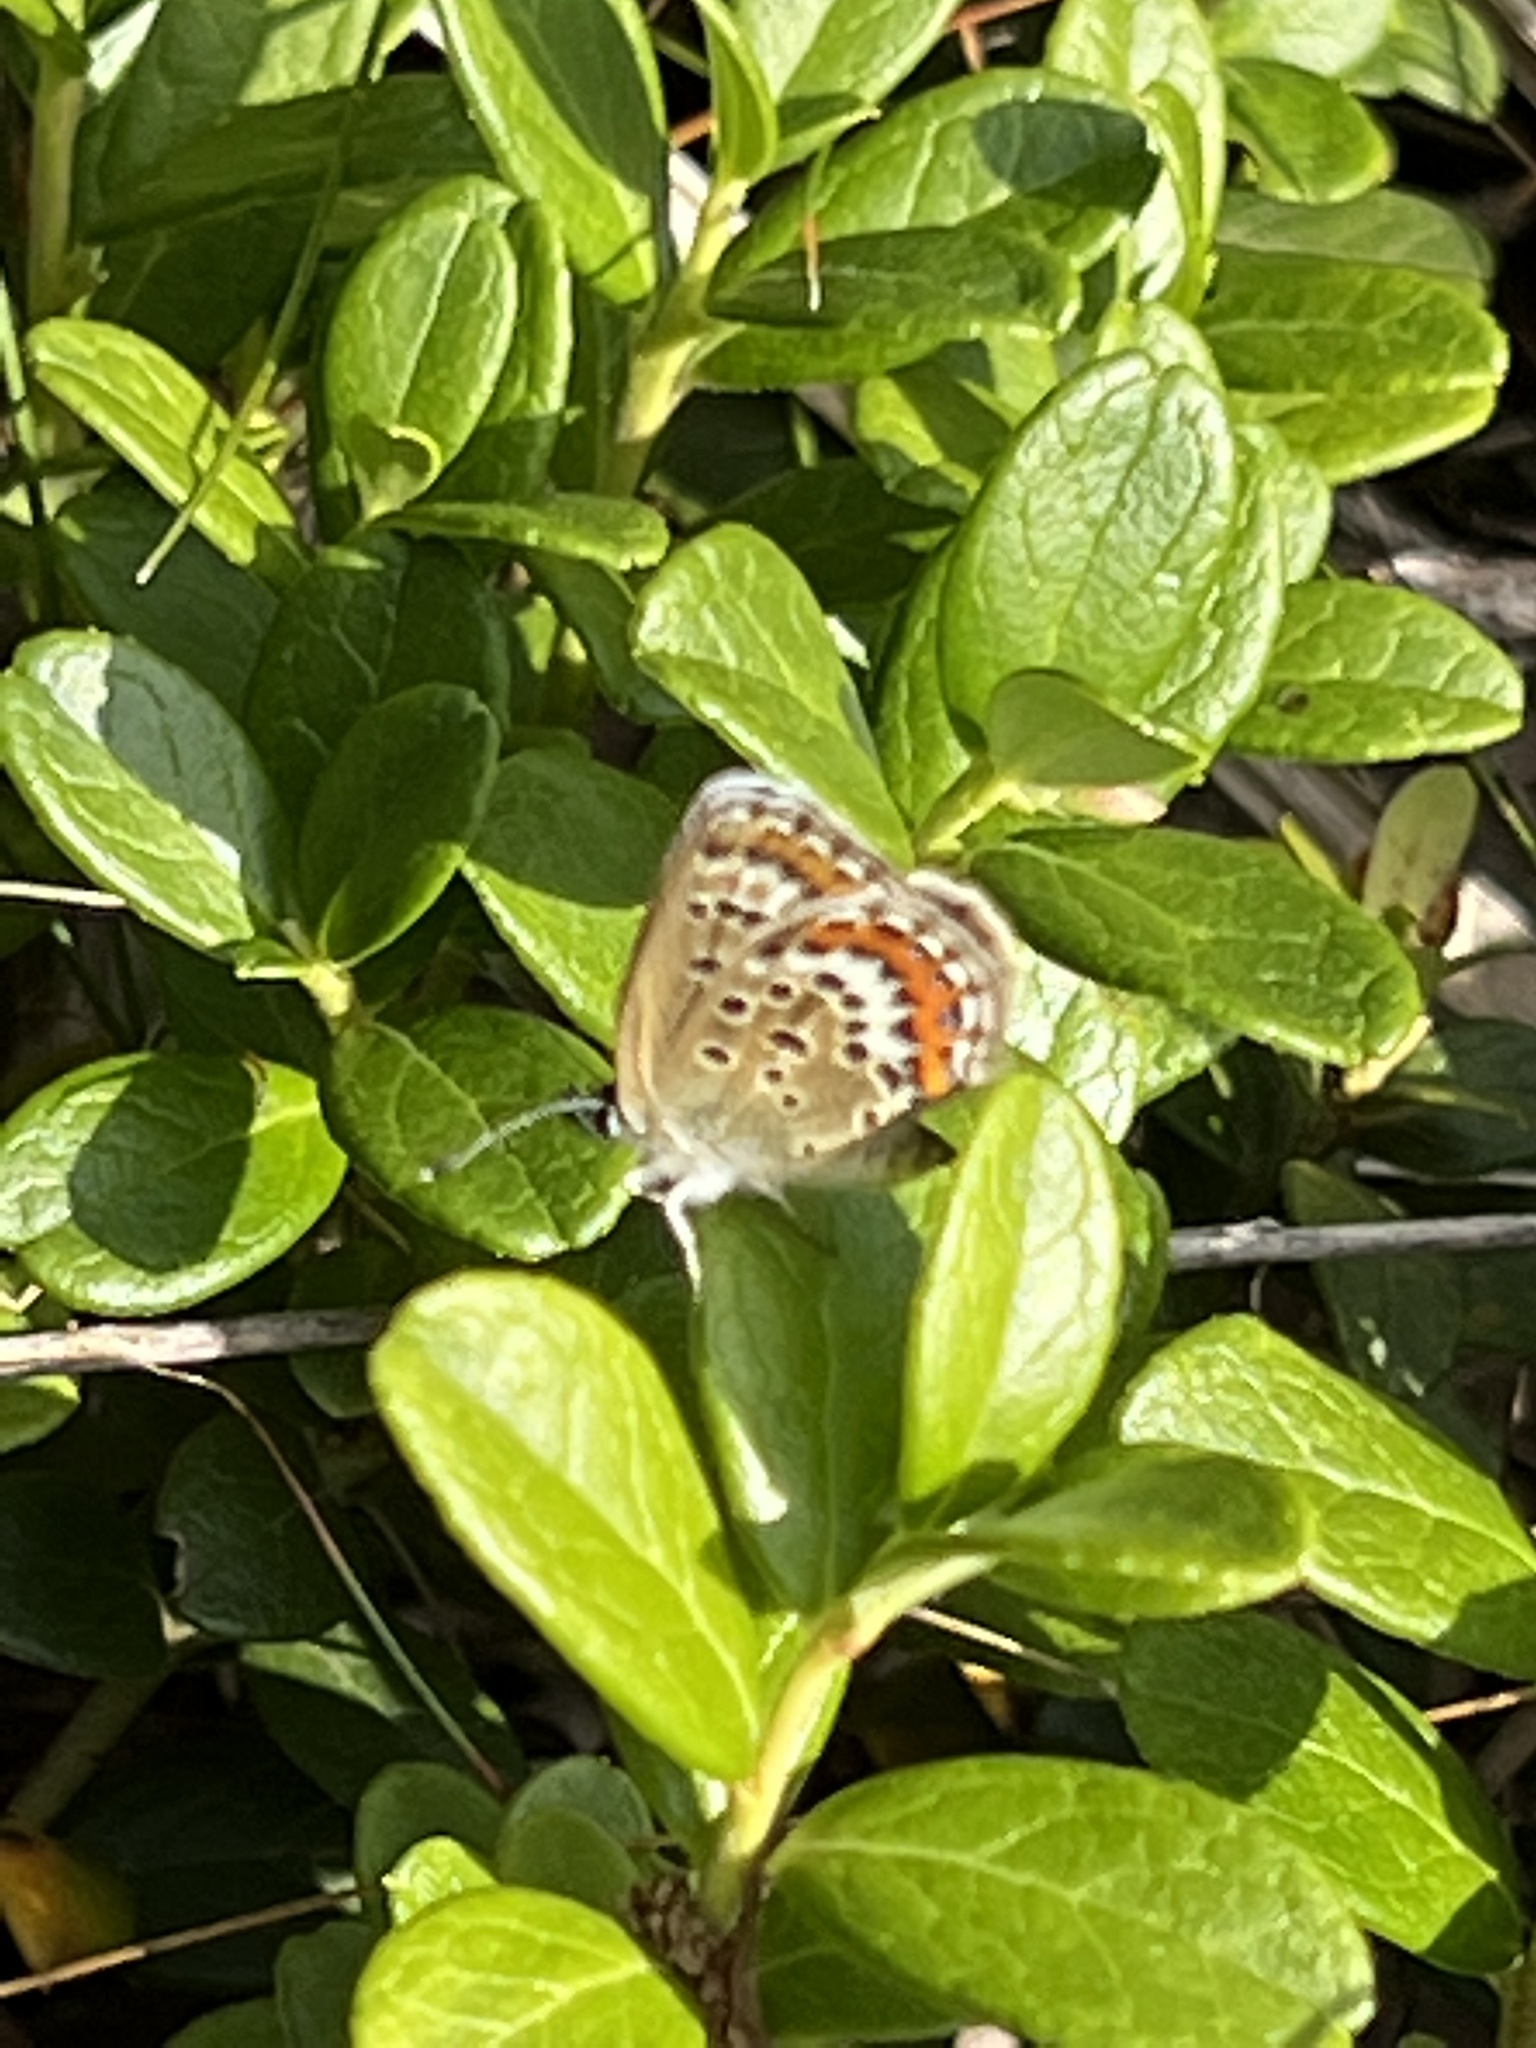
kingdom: Animalia
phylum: Arthropoda
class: Insecta
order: Lepidoptera
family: Lycaenidae
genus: Plebejus
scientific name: Plebejus argus
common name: Silver-studded blue
